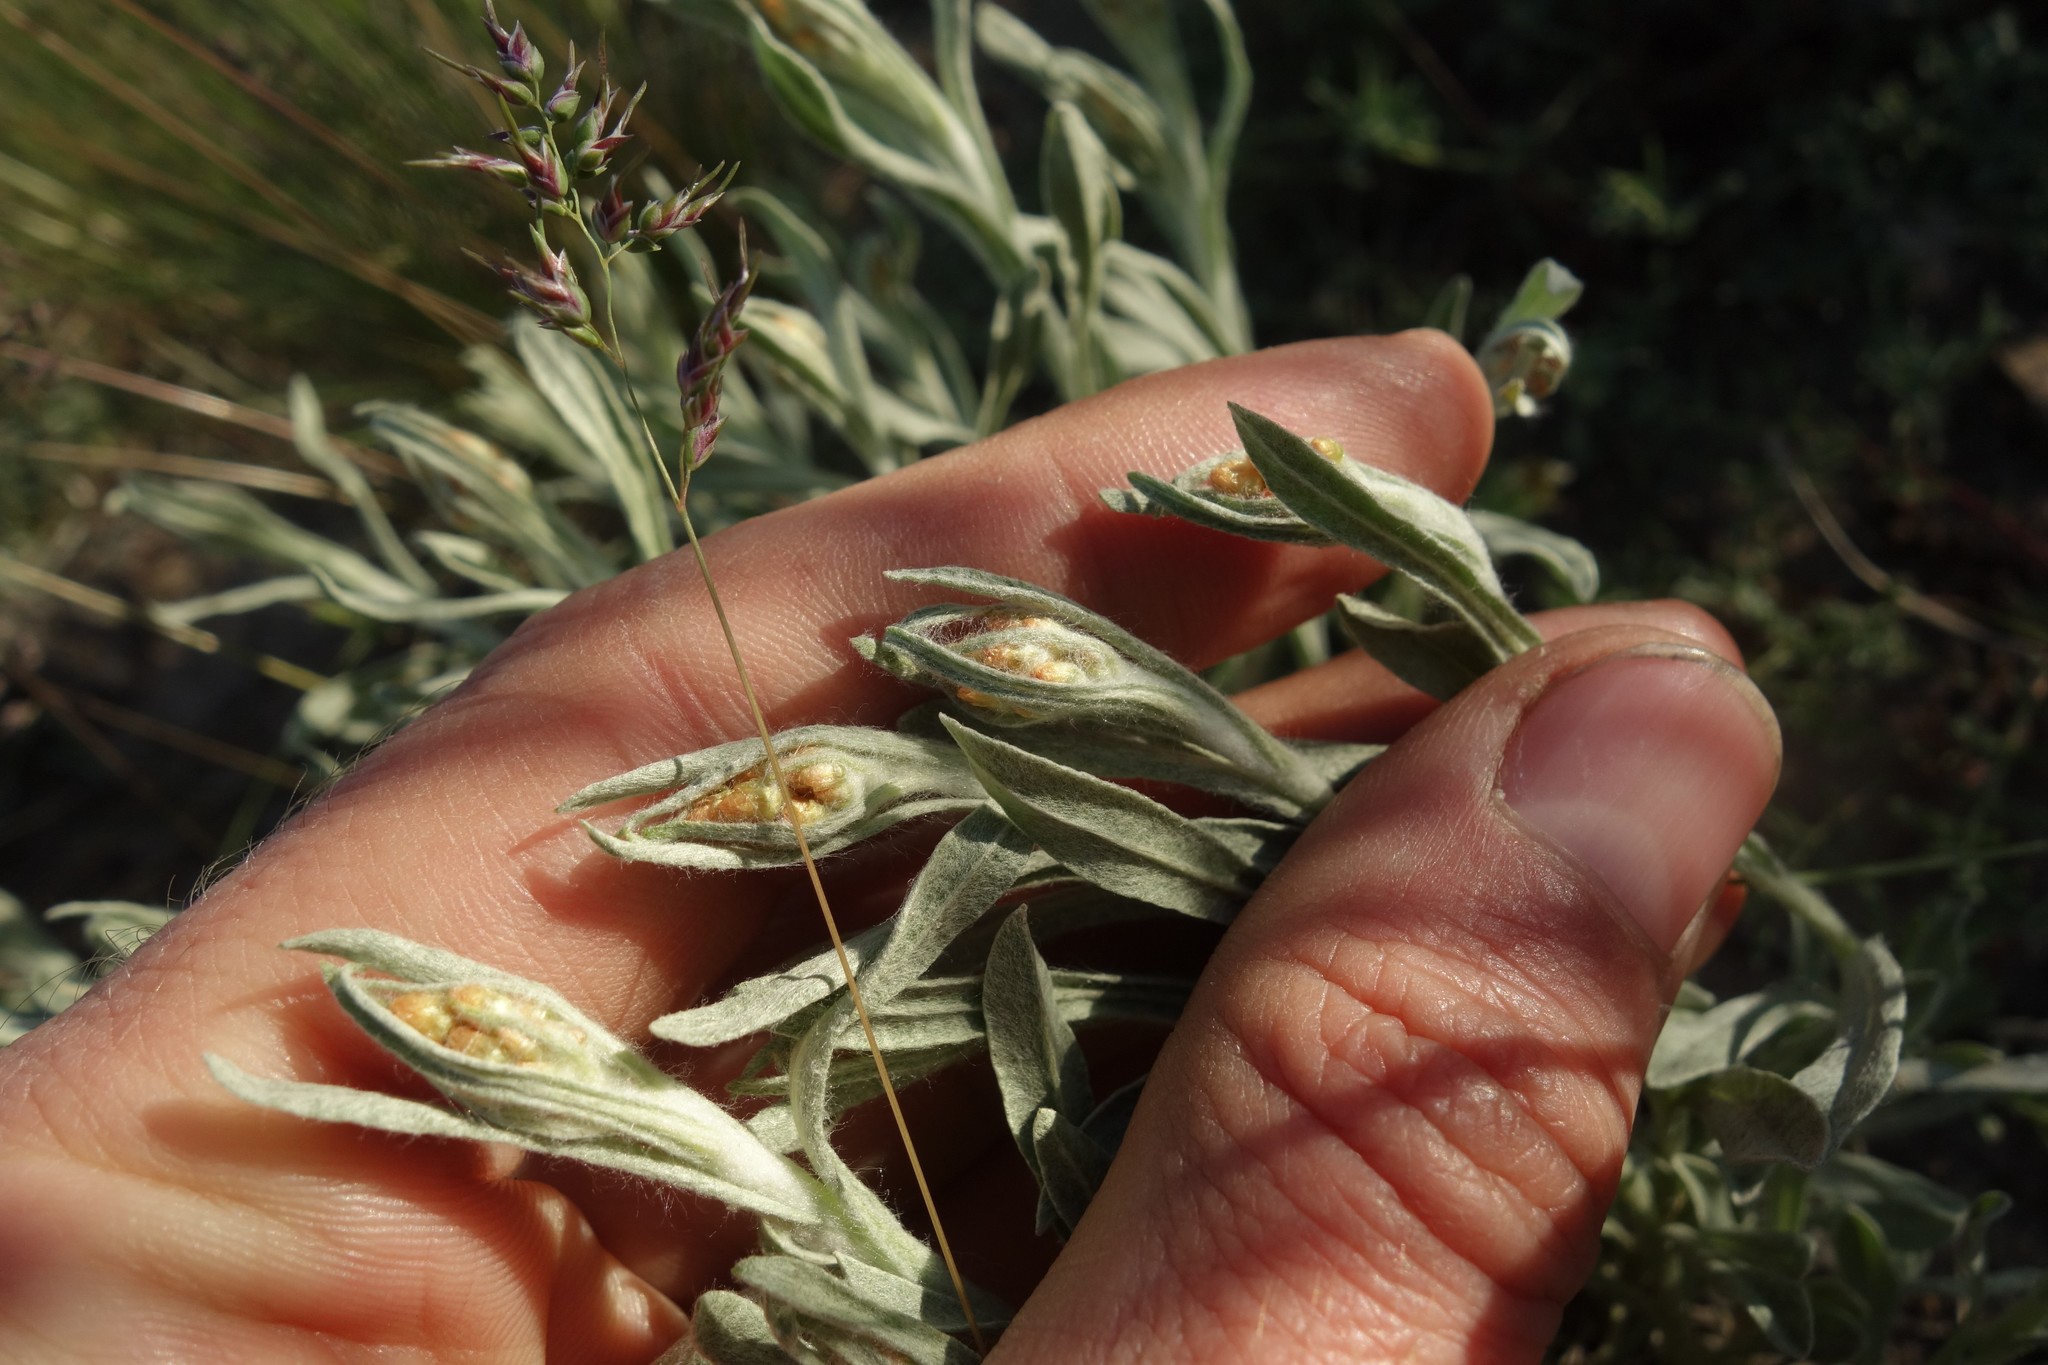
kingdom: Plantae
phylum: Tracheophyta
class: Magnoliopsida
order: Asterales
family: Asteraceae
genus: Helichrysum
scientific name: Helichrysum arenarium
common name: Strawflower
